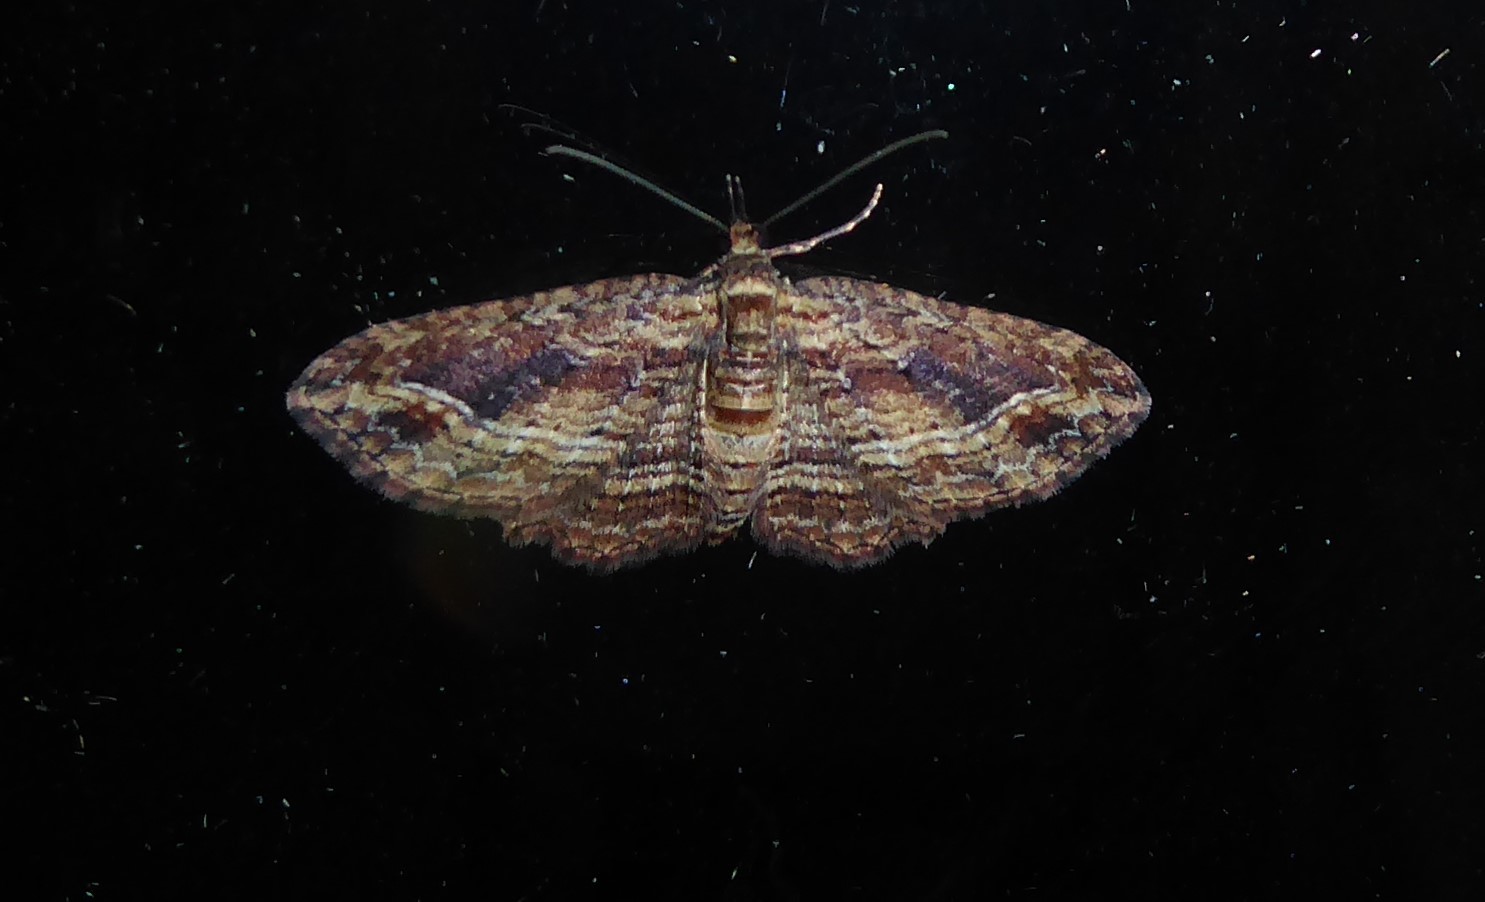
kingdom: Animalia
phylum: Arthropoda
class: Insecta
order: Lepidoptera
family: Geometridae
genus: Chloroclystis
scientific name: Chloroclystis filata
